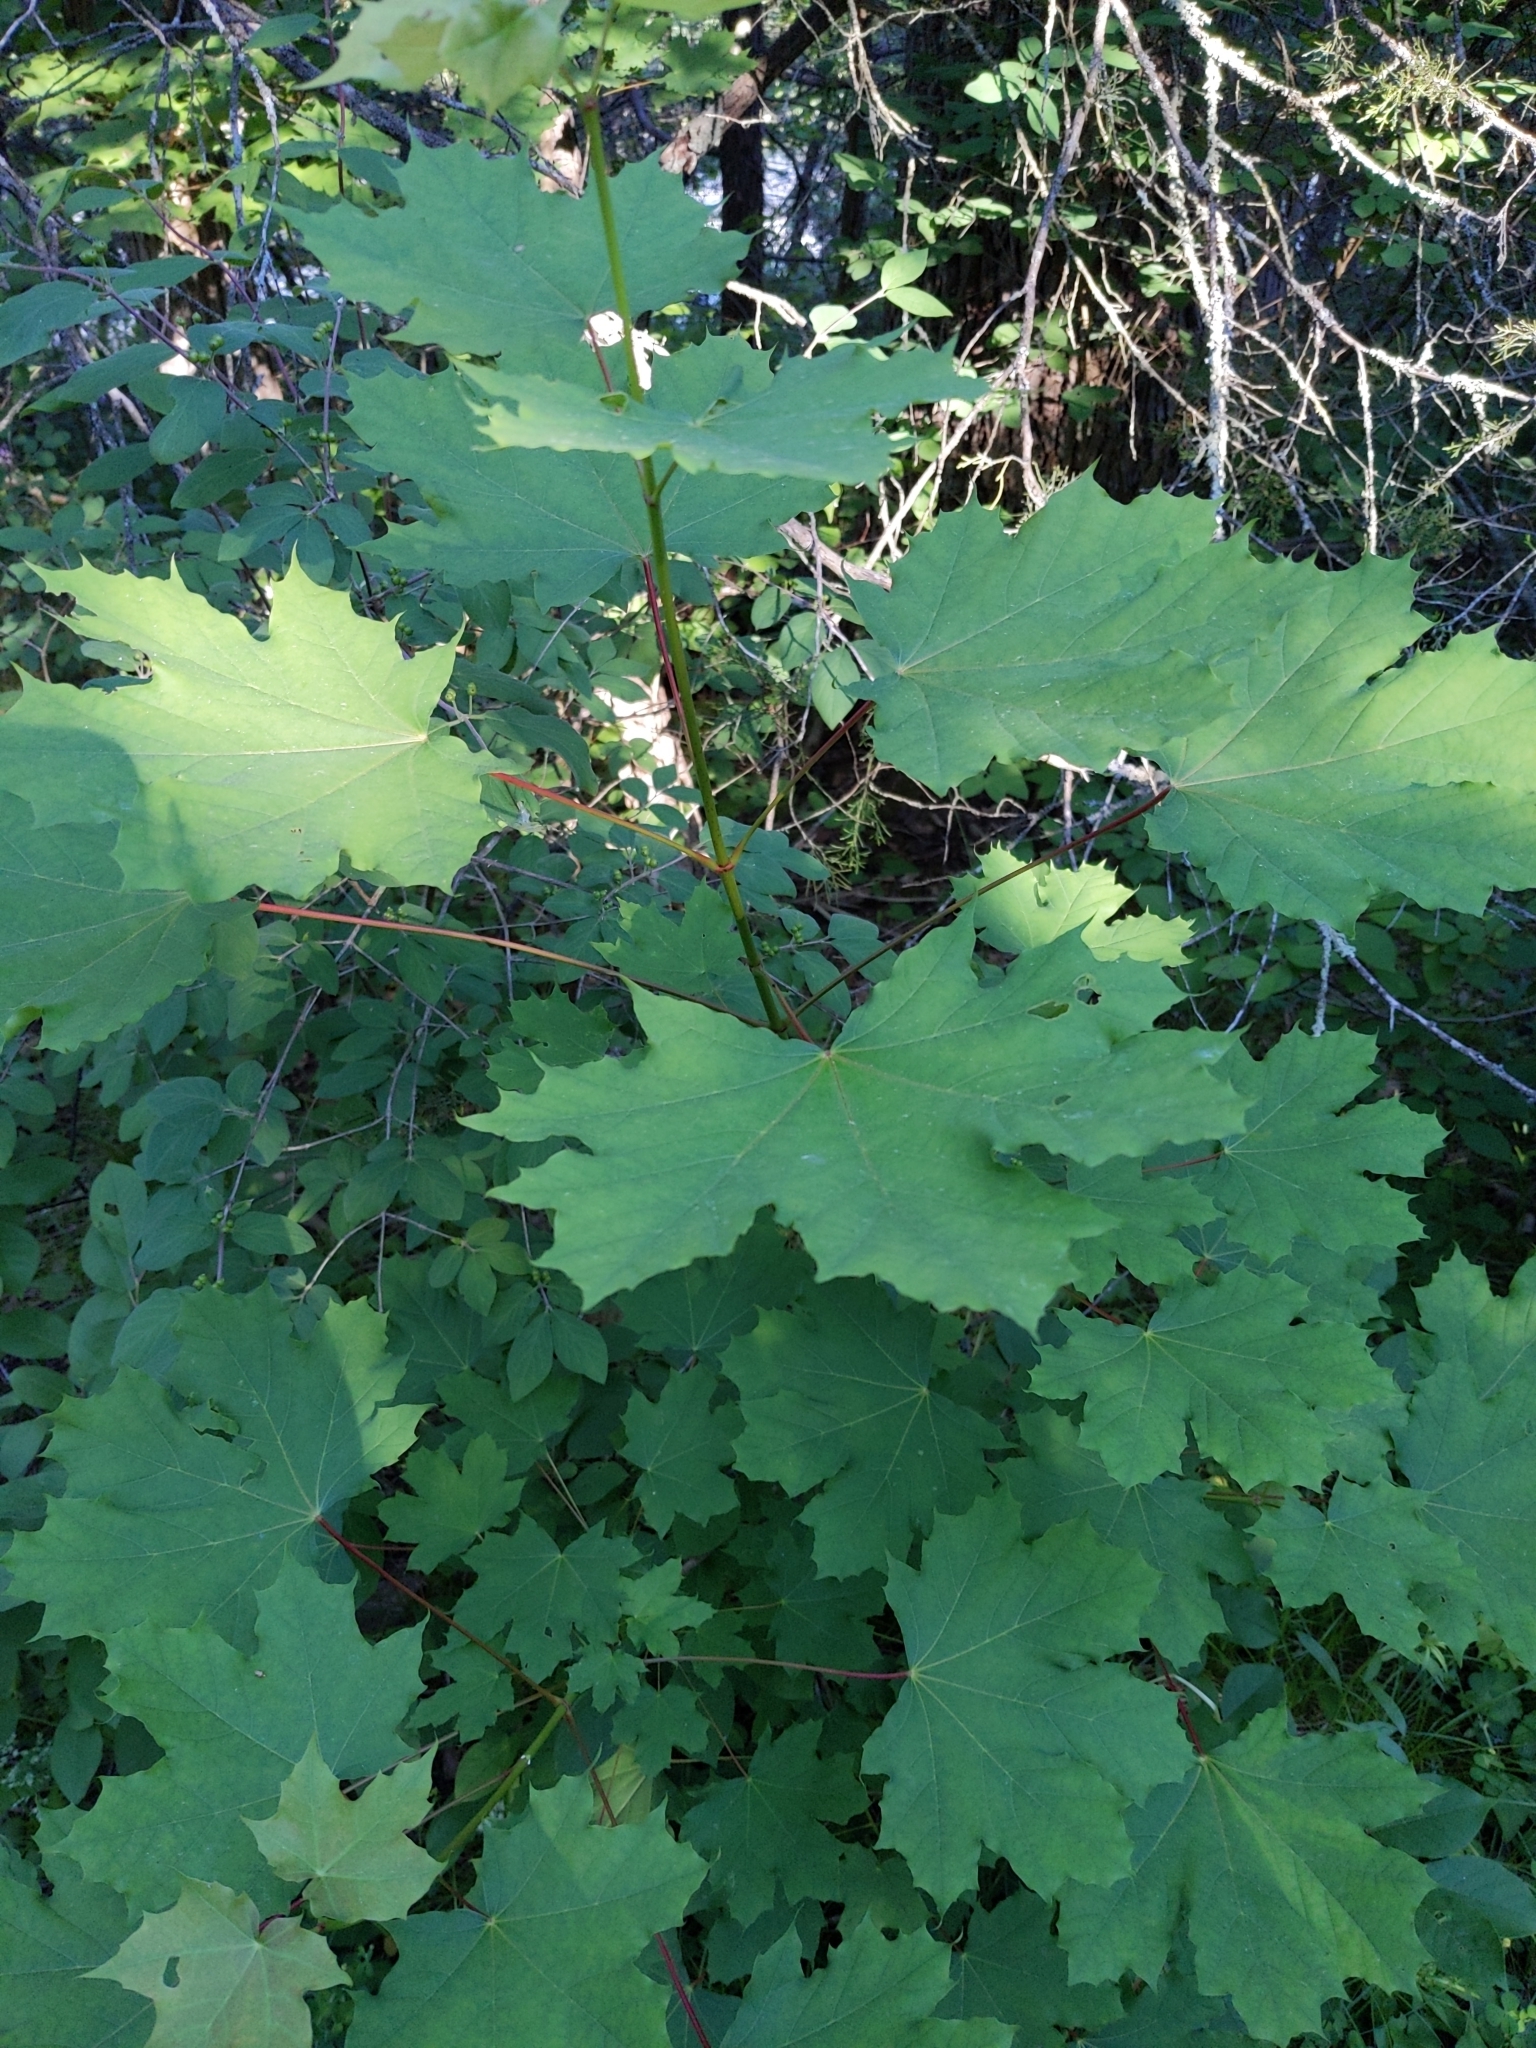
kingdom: Plantae
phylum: Tracheophyta
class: Magnoliopsida
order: Sapindales
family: Sapindaceae
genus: Acer
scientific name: Acer platanoides
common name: Norway maple
